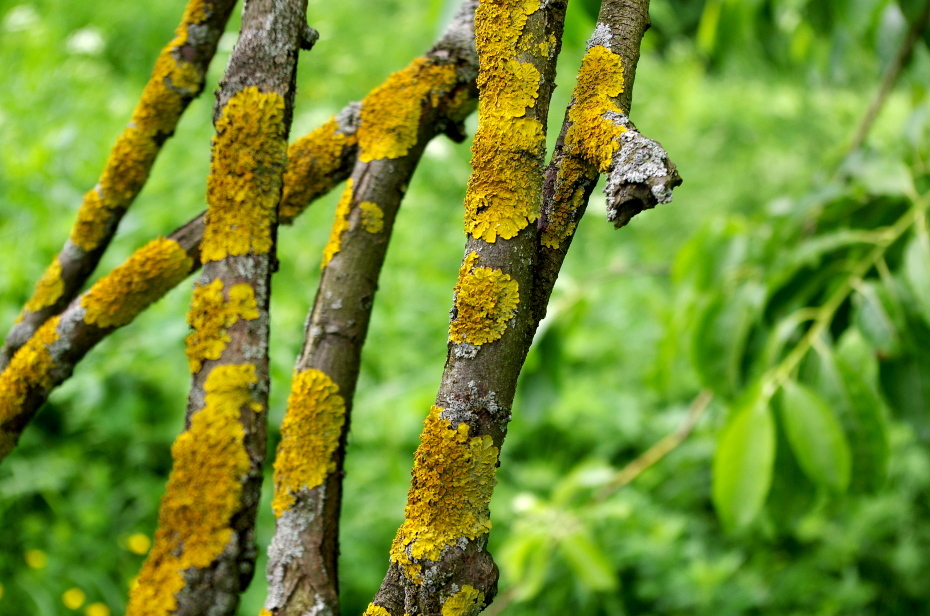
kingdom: Fungi
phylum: Ascomycota
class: Lecanoromycetes
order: Teloschistales
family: Teloschistaceae
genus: Xanthoria
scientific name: Xanthoria parietina
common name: Common orange lichen
